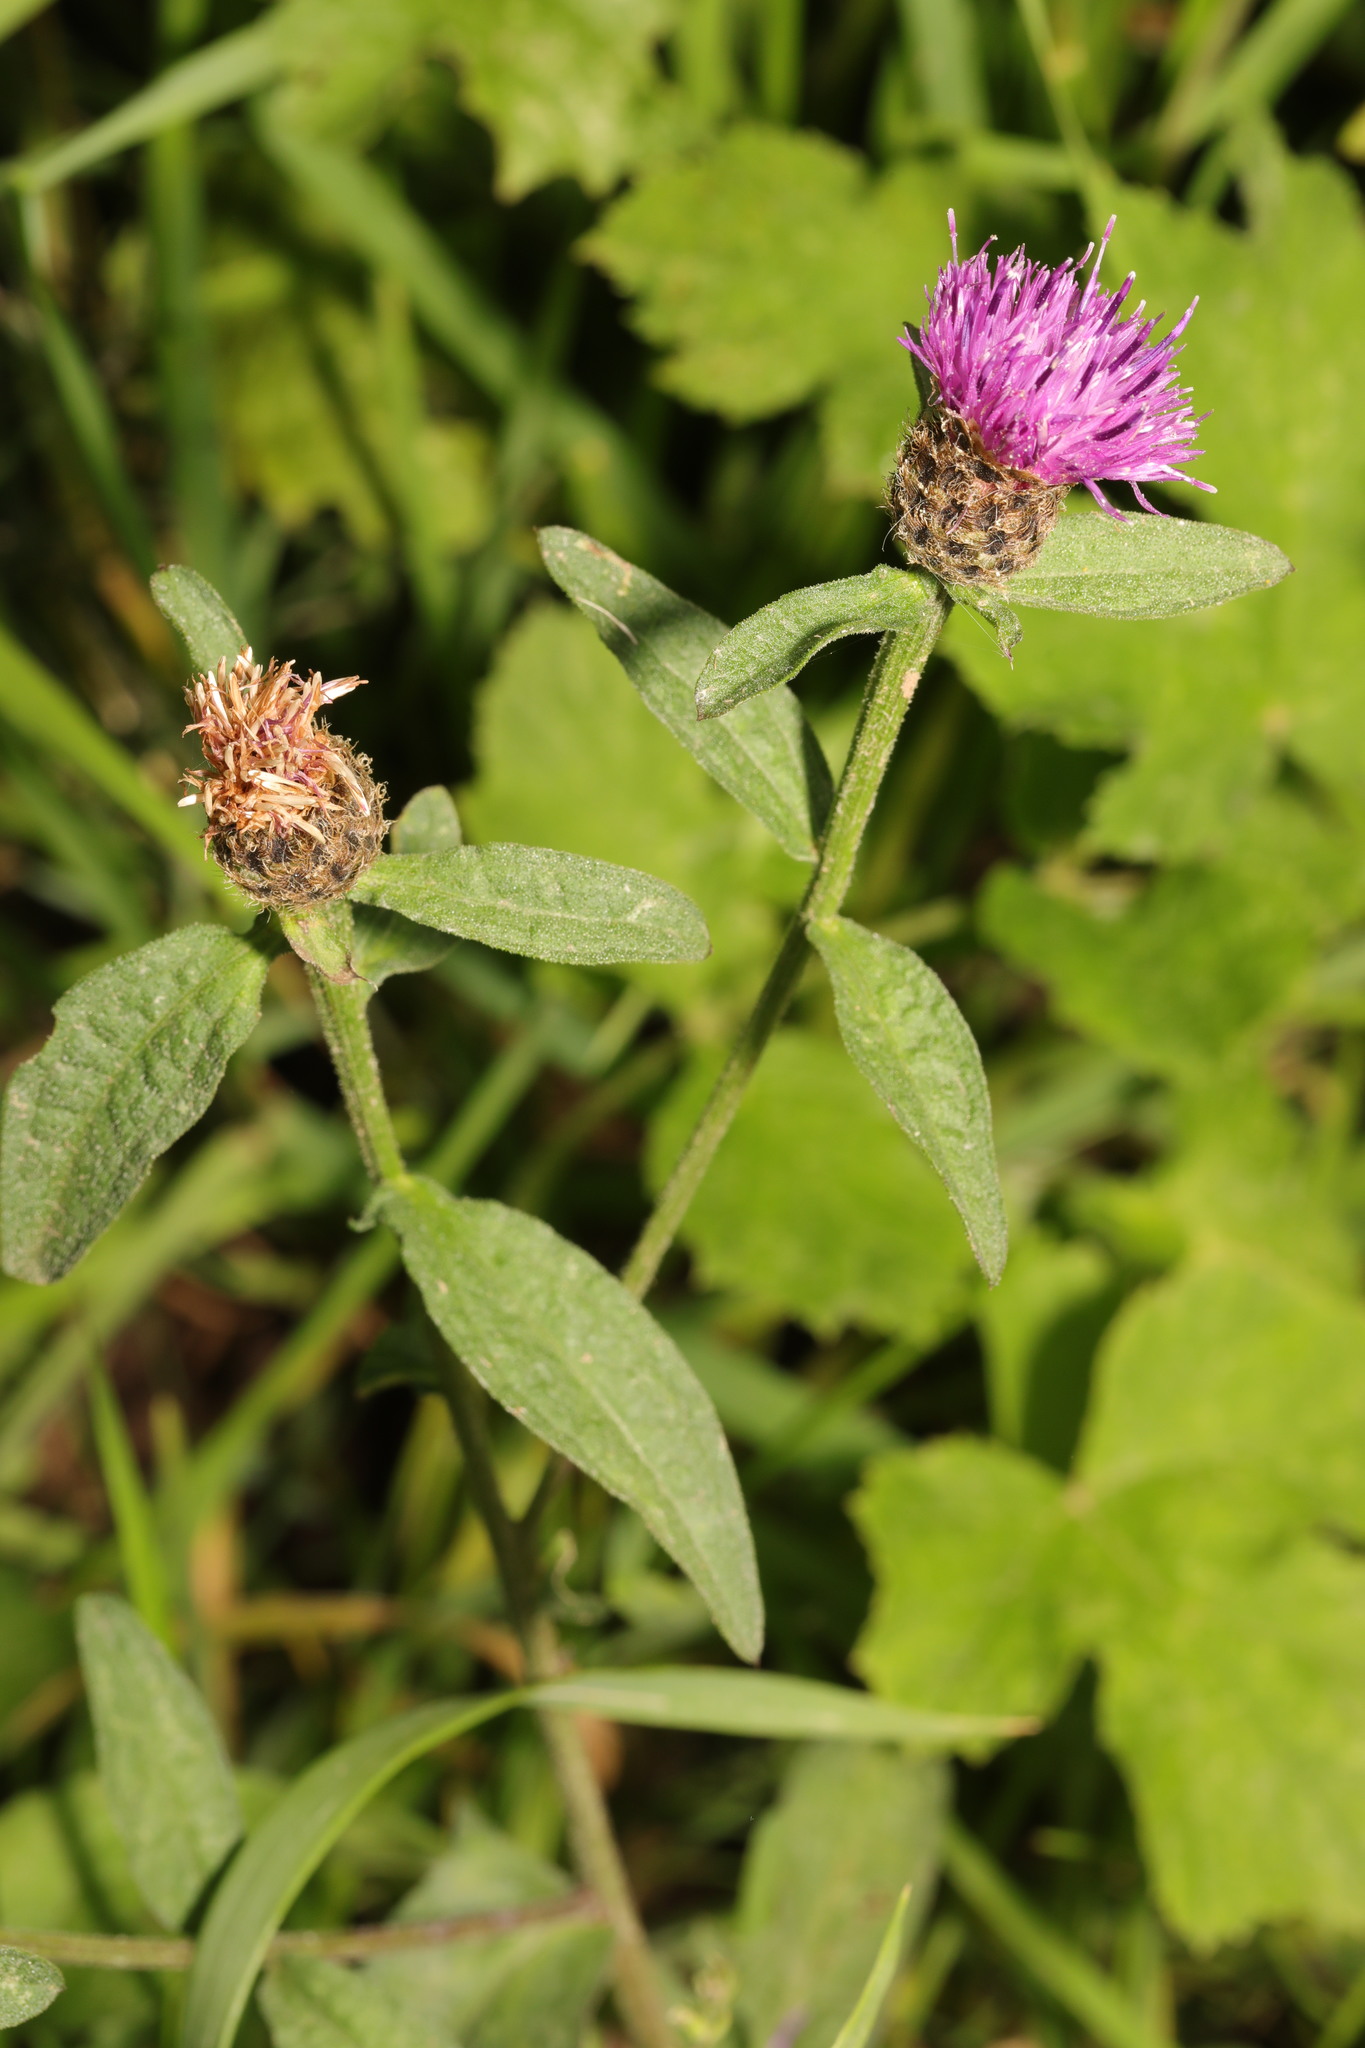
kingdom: Plantae
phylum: Tracheophyta
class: Magnoliopsida
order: Asterales
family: Asteraceae
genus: Centaurea
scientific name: Centaurea nigra
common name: Lesser knapweed
